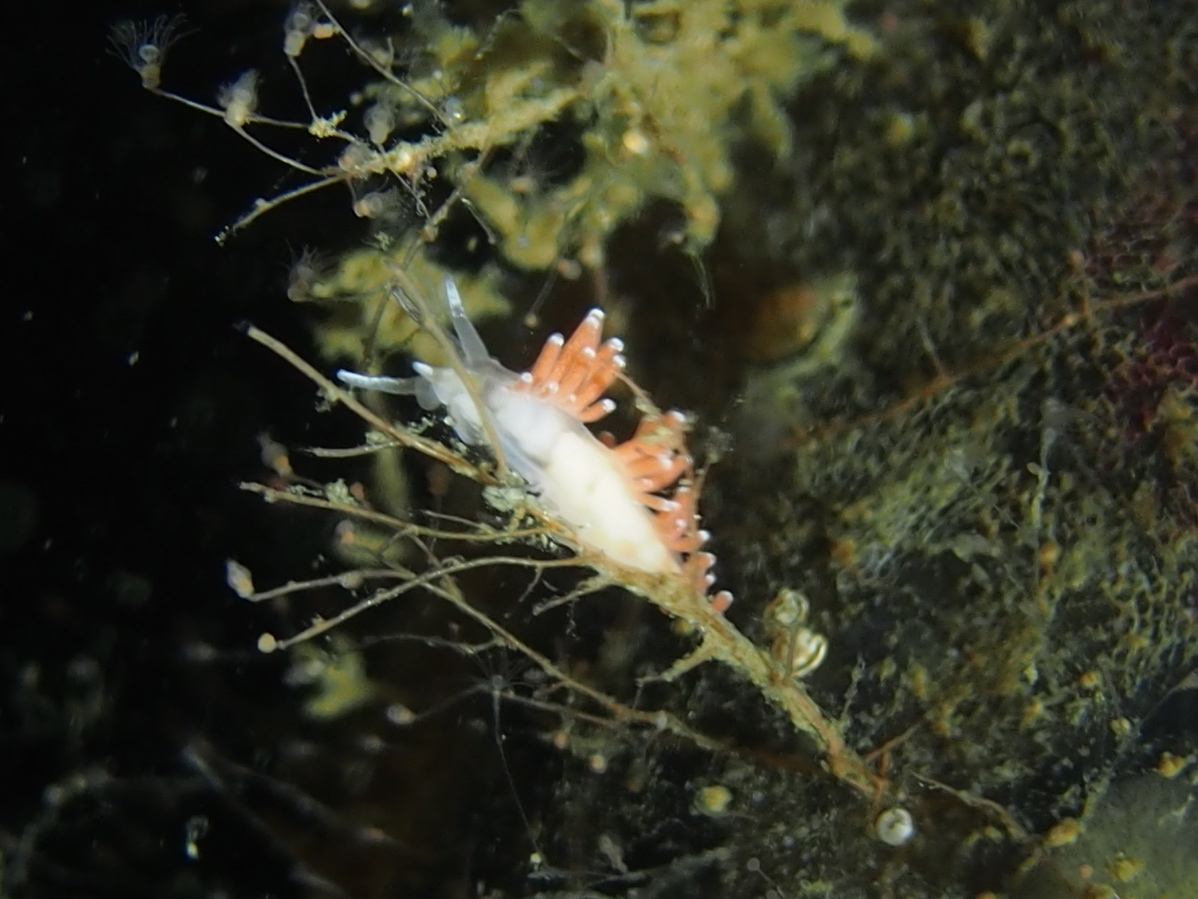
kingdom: Animalia
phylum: Mollusca
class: Gastropoda
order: Nudibranchia
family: Coryphellidae
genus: Coryphella
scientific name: Coryphella gracilis
